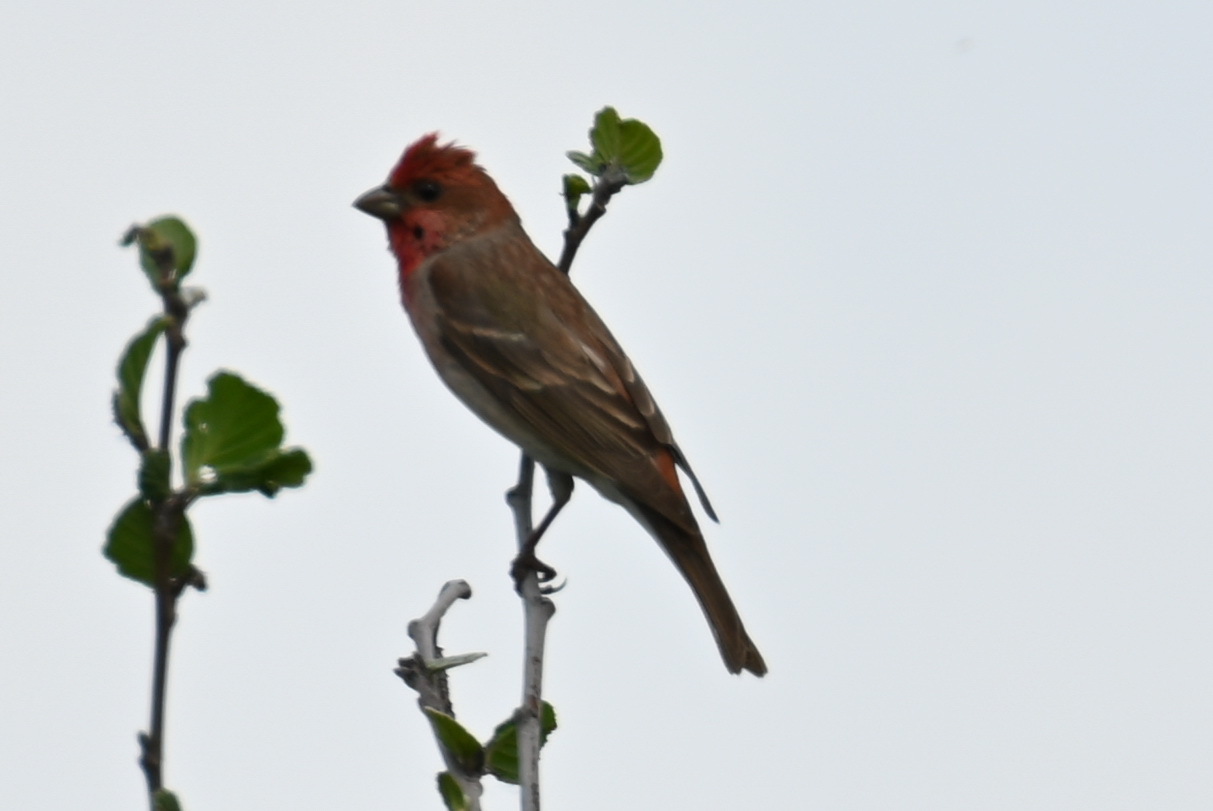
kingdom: Animalia
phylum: Chordata
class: Aves
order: Passeriformes
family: Fringillidae
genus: Carpodacus
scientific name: Carpodacus erythrinus
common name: Common rosefinch
